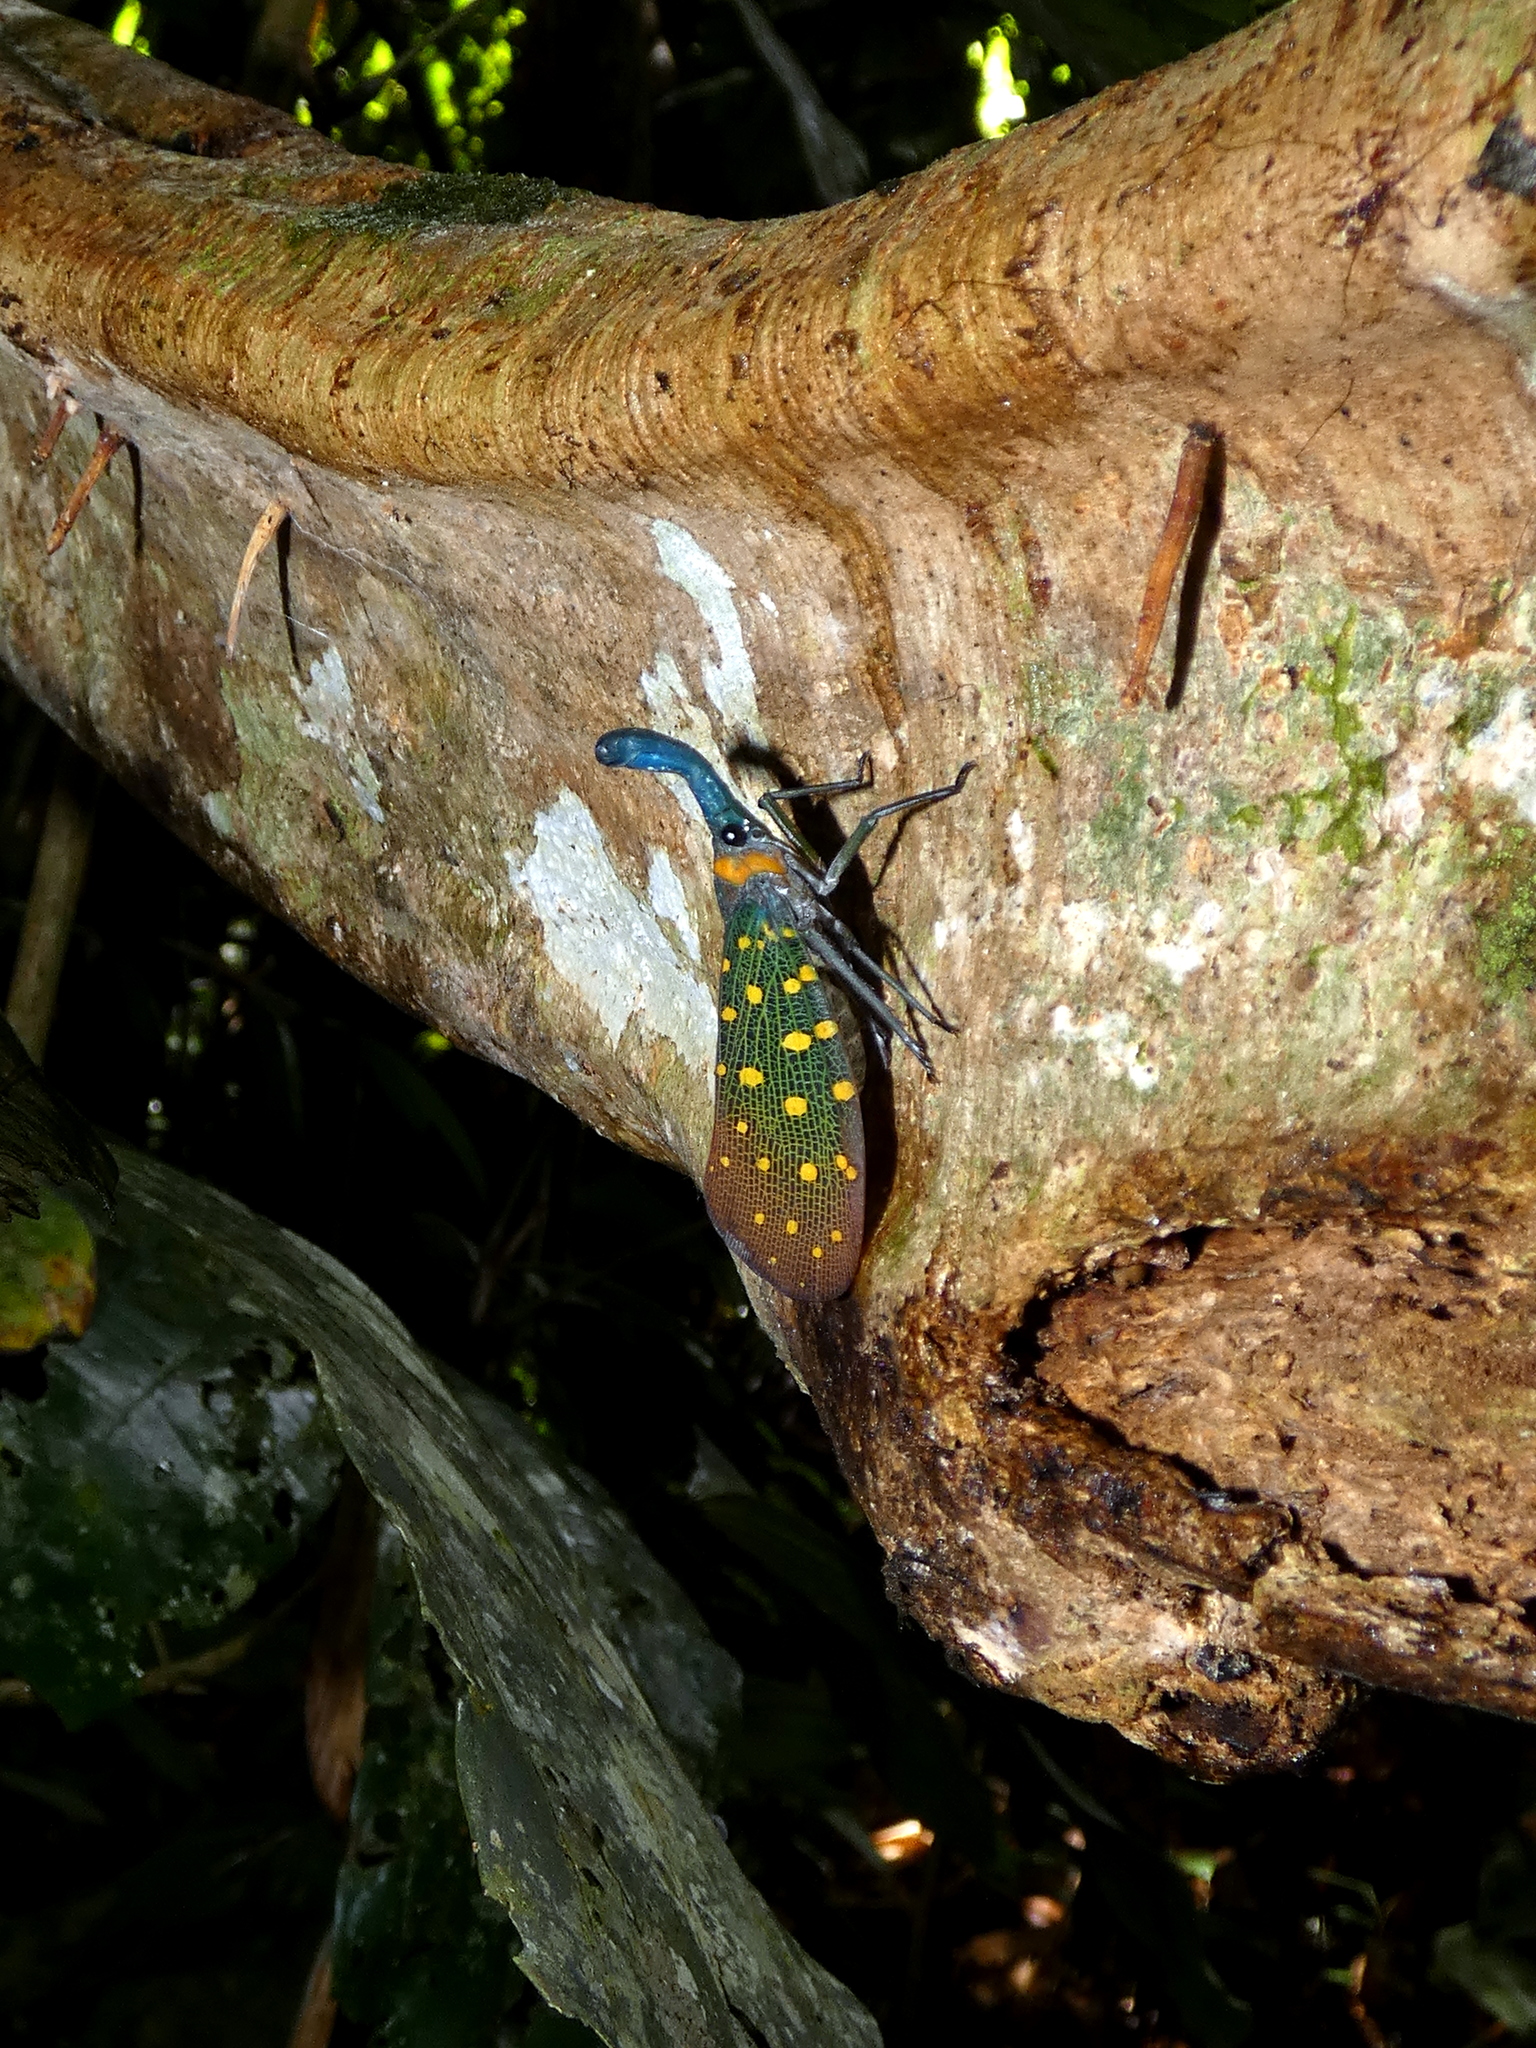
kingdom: Animalia
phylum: Arthropoda
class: Insecta
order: Hemiptera
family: Fulgoridae
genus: Pyrops
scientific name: Pyrops whiteheadi
